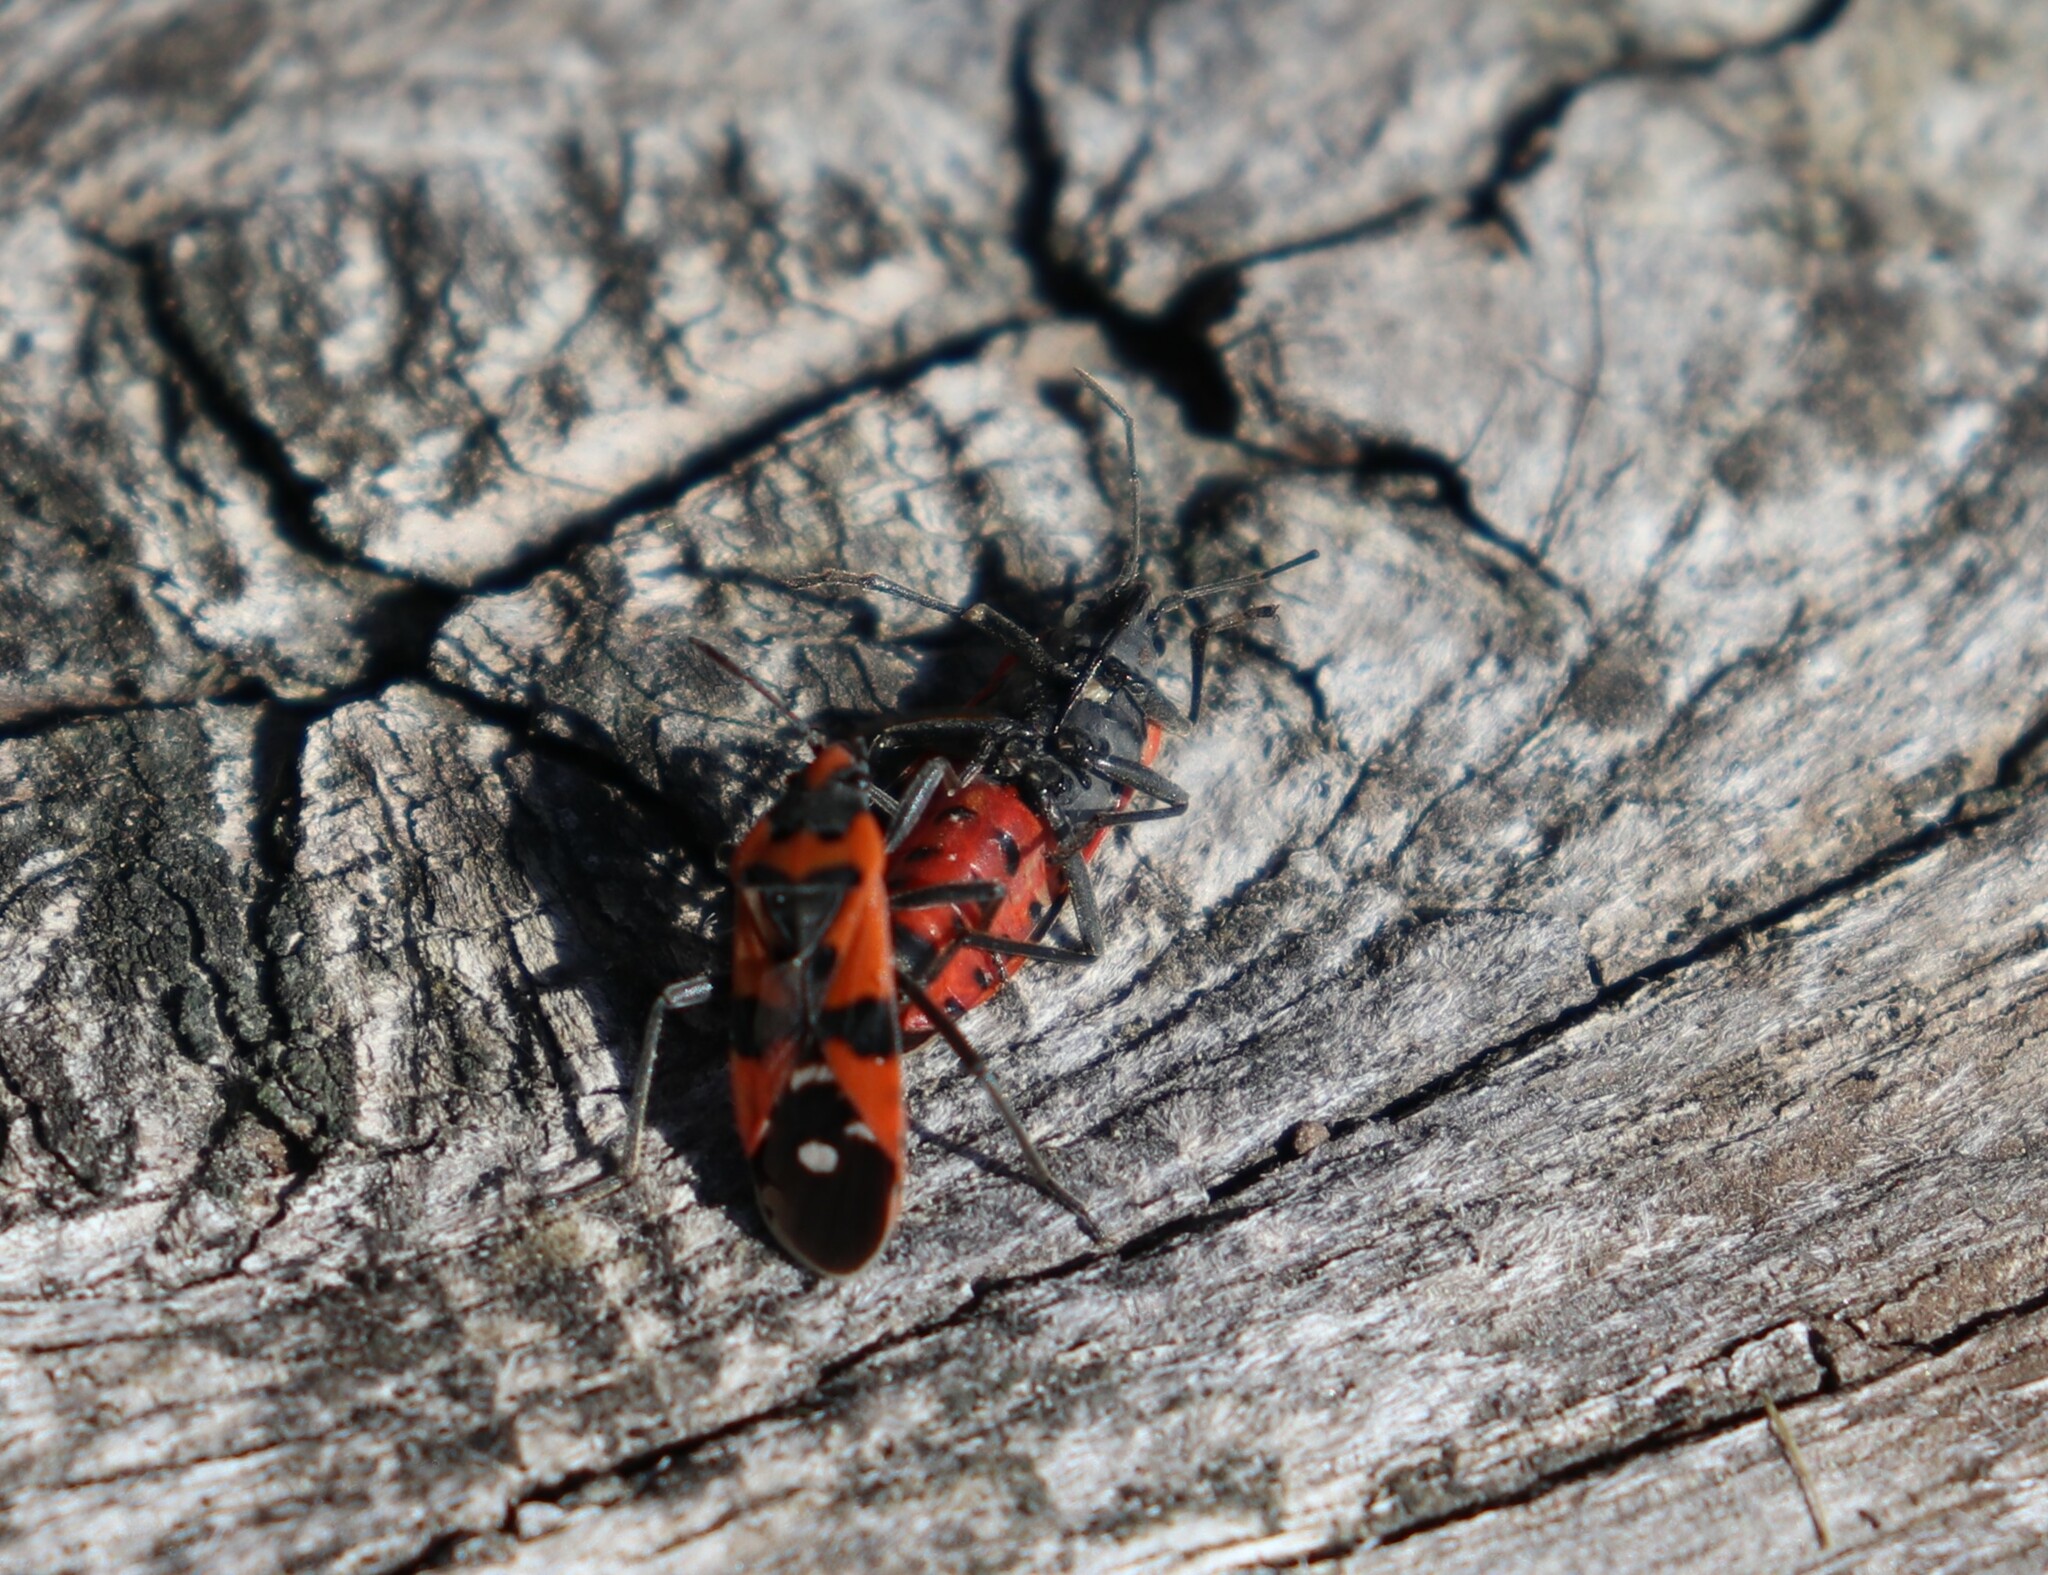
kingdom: Animalia
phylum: Arthropoda
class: Insecta
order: Hemiptera
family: Lygaeidae
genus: Lygaeus
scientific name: Lygaeus
